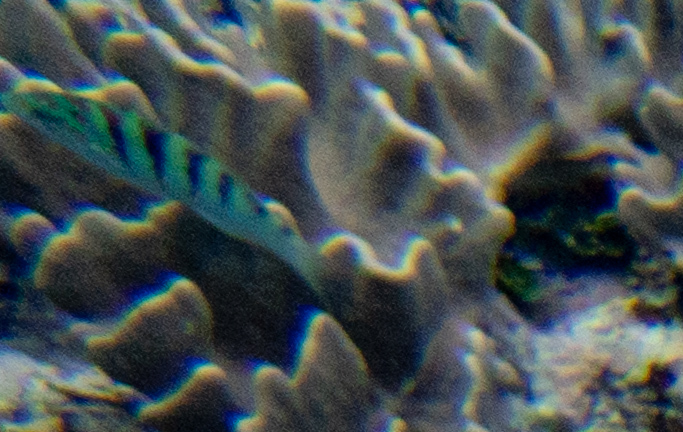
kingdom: Animalia
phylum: Chordata
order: Perciformes
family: Labridae
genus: Thalassoma
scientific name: Thalassoma hardwicke
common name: Sixbar wrasse
